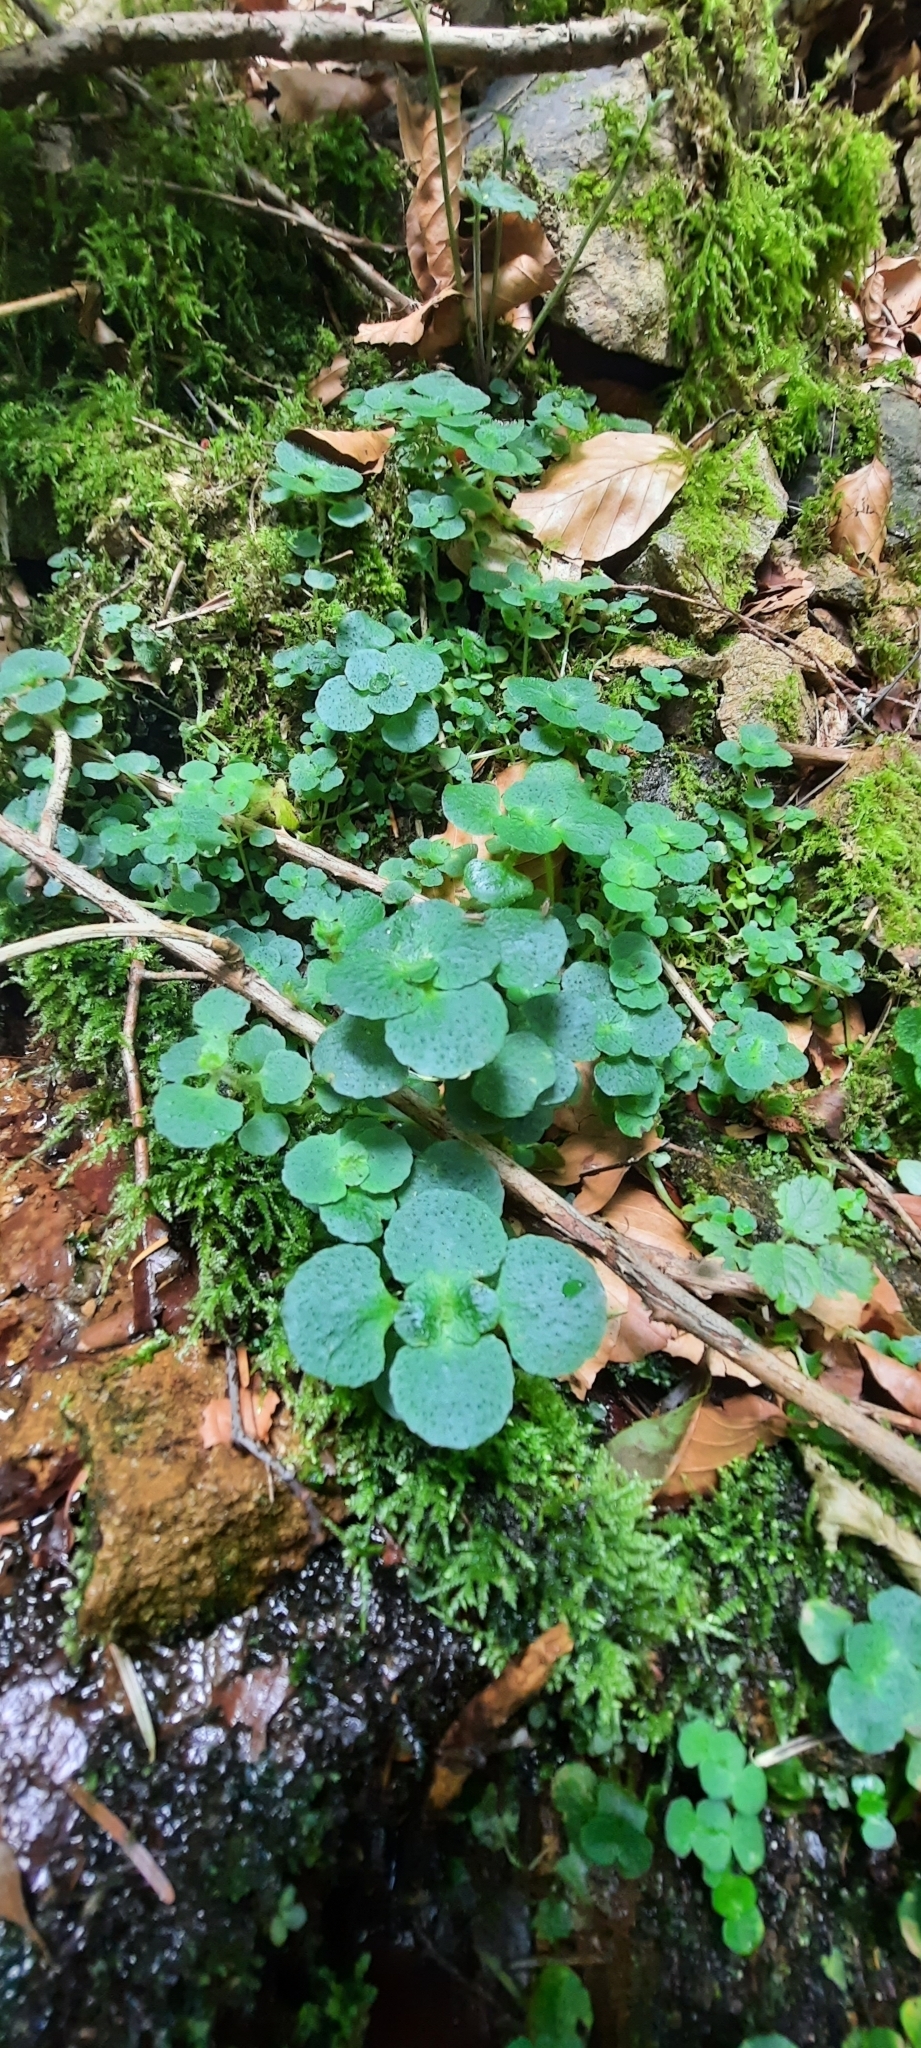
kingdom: Plantae
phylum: Tracheophyta
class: Magnoliopsida
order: Saxifragales
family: Saxifragaceae
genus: Chrysosplenium
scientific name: Chrysosplenium oppositifolium
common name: Opposite-leaved golden-saxifrage
